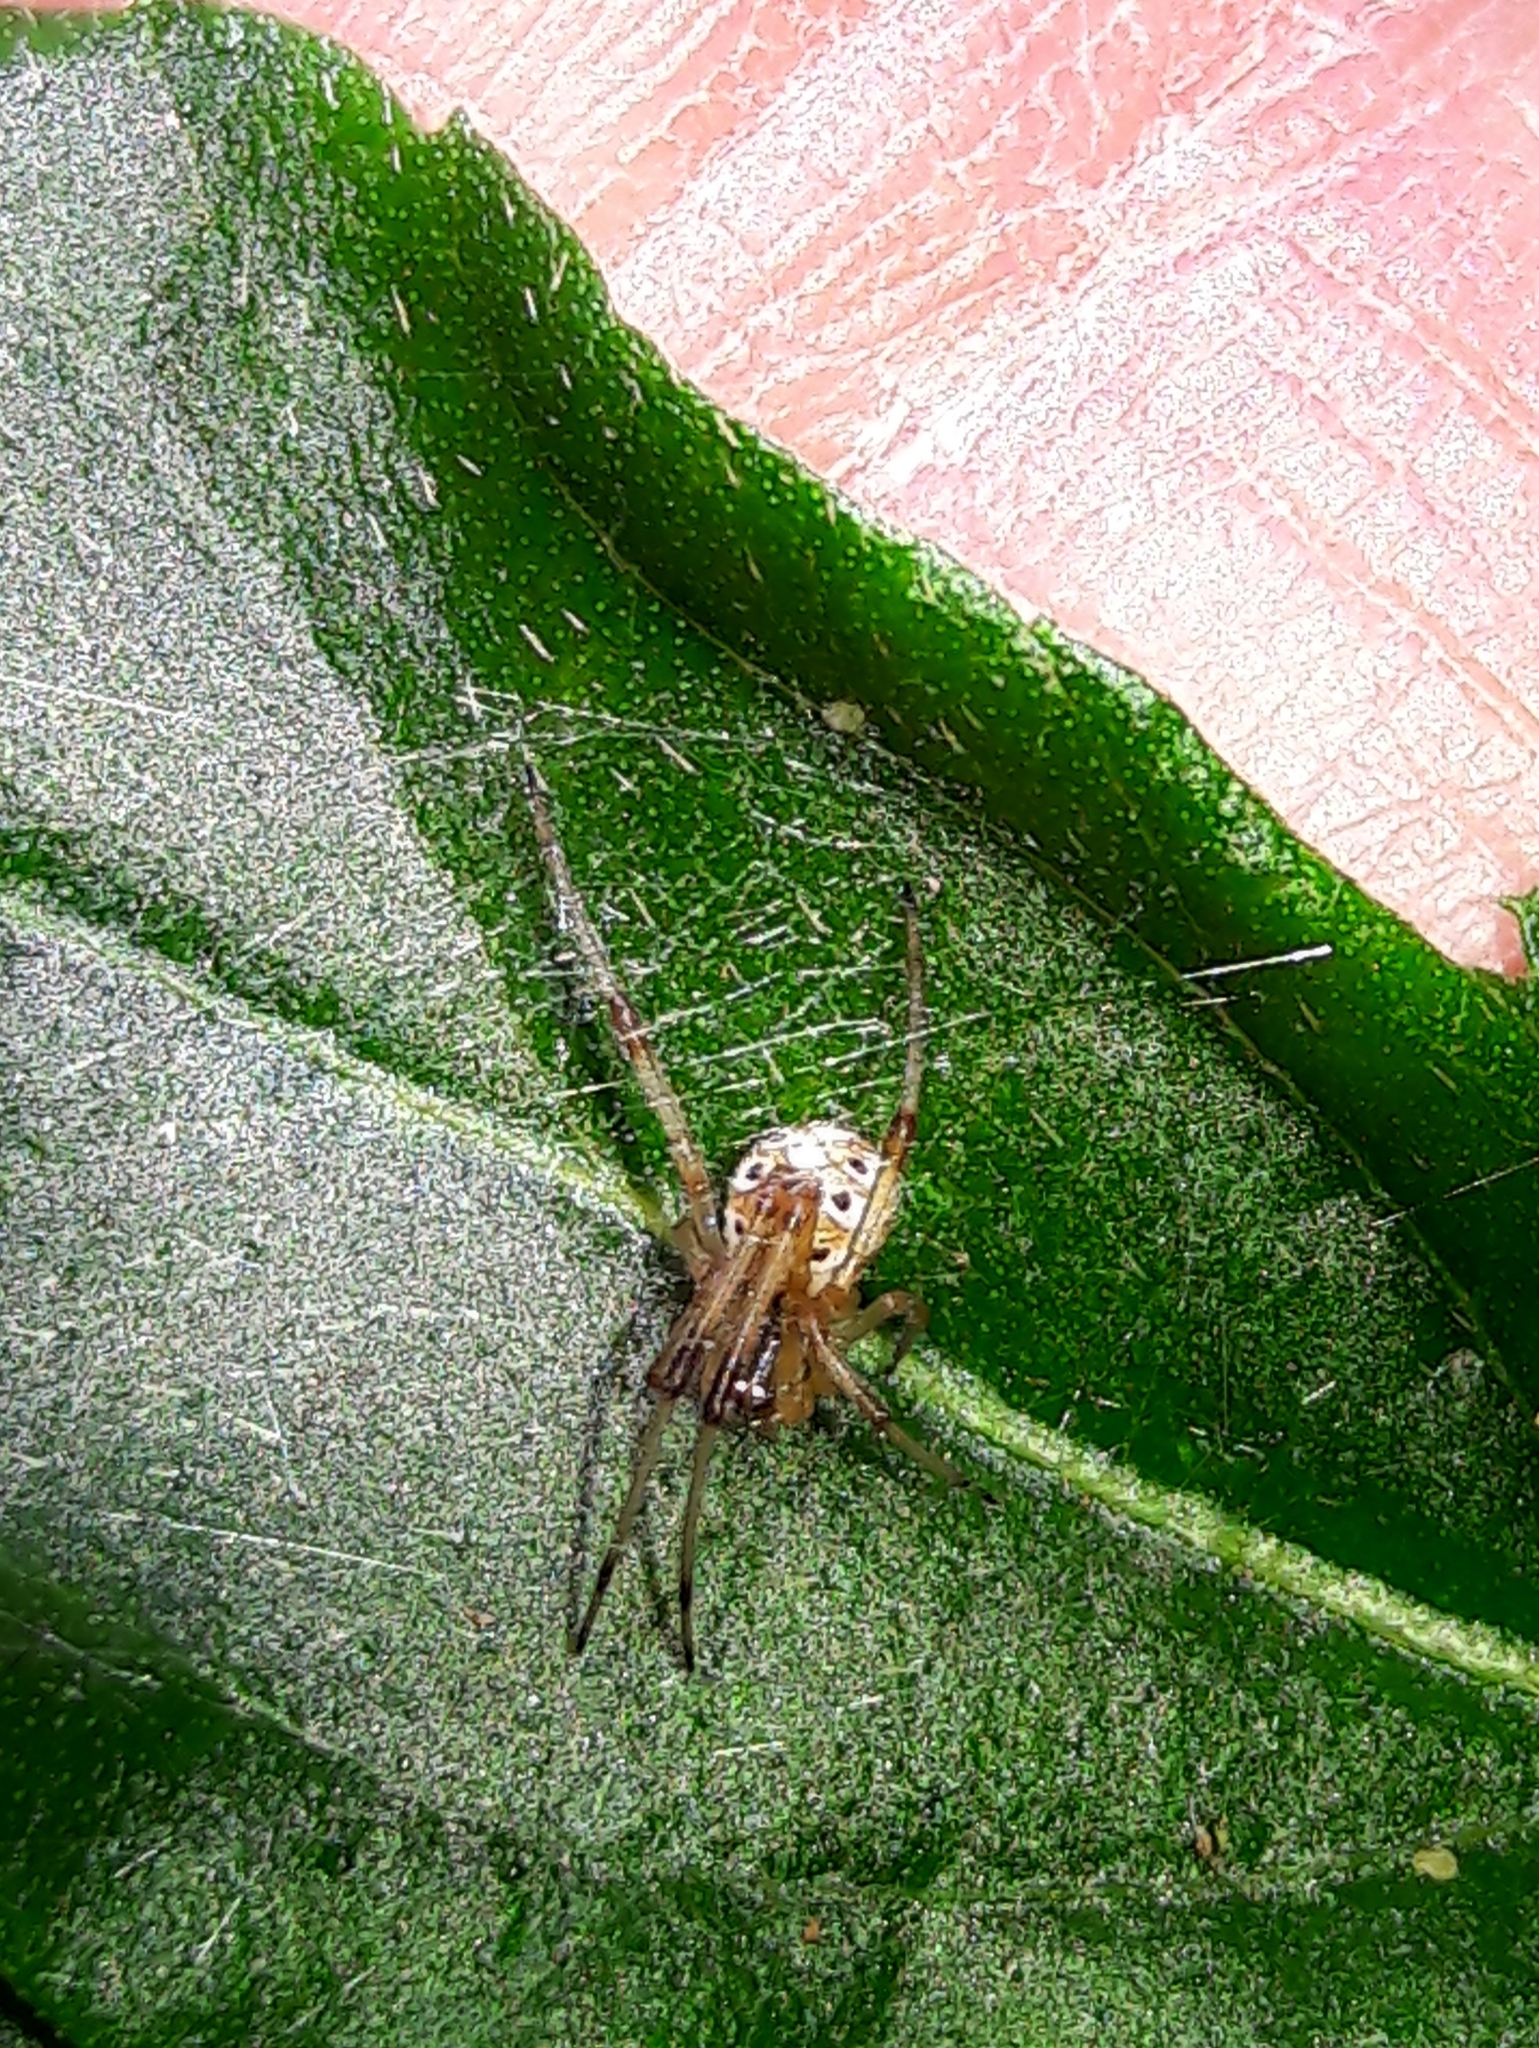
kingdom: Animalia
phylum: Arthropoda
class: Arachnida
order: Araneae
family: Theridiidae
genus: Latrodectus
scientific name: Latrodectus geometricus
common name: Brown widow spider
